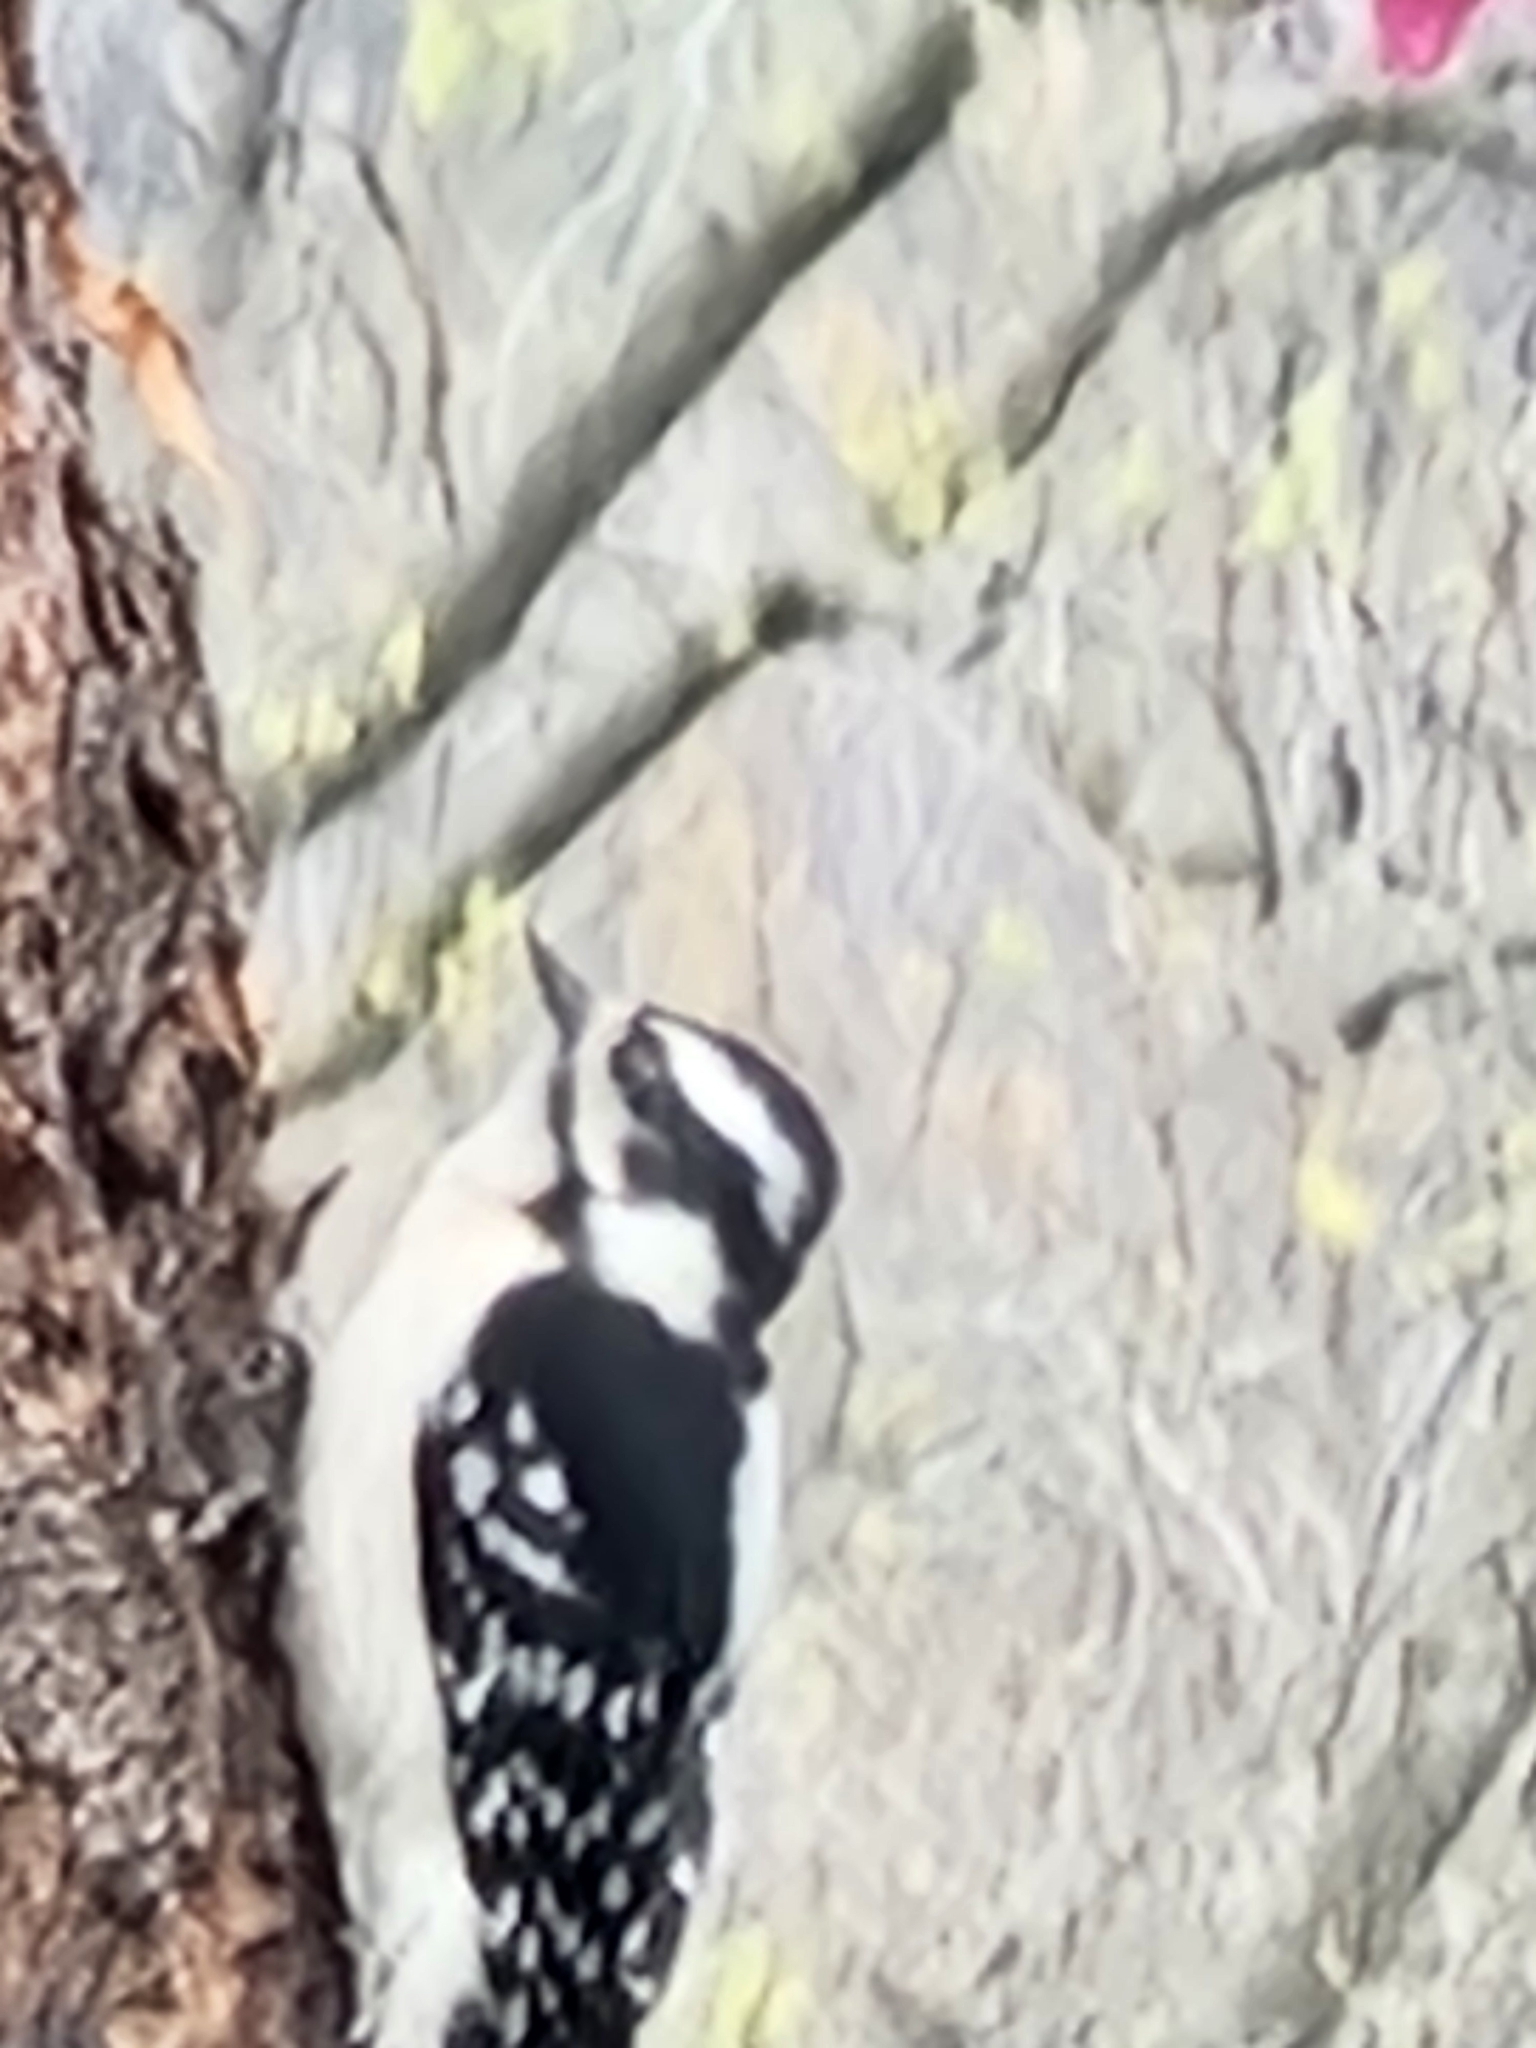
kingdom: Animalia
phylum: Chordata
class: Aves
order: Piciformes
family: Picidae
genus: Dryobates
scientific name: Dryobates pubescens
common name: Downy woodpecker
